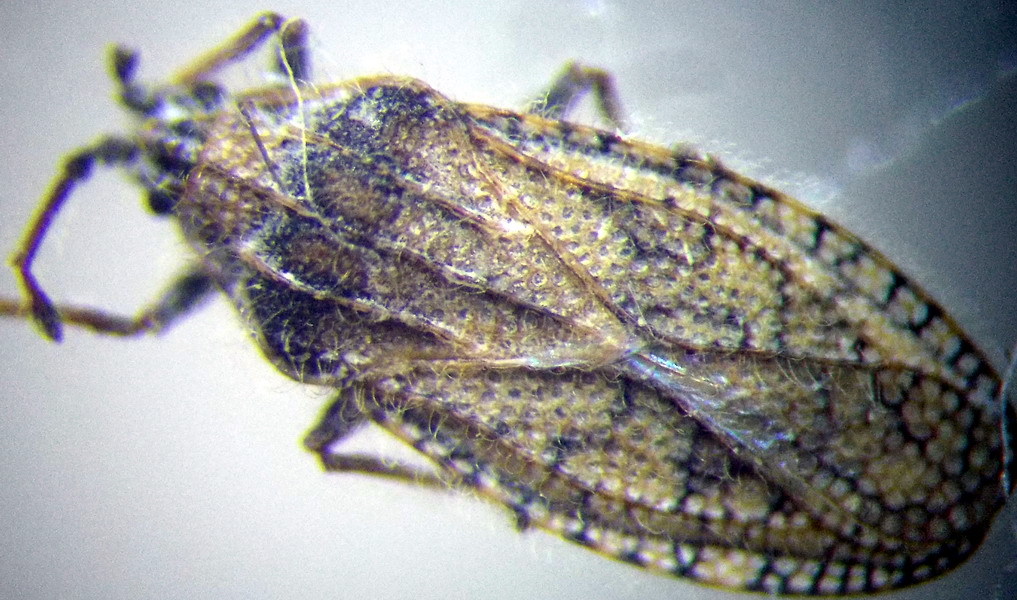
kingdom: Animalia
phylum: Arthropoda
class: Insecta
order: Hemiptera
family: Tingidae
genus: Tingis
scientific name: Tingis pauperata
